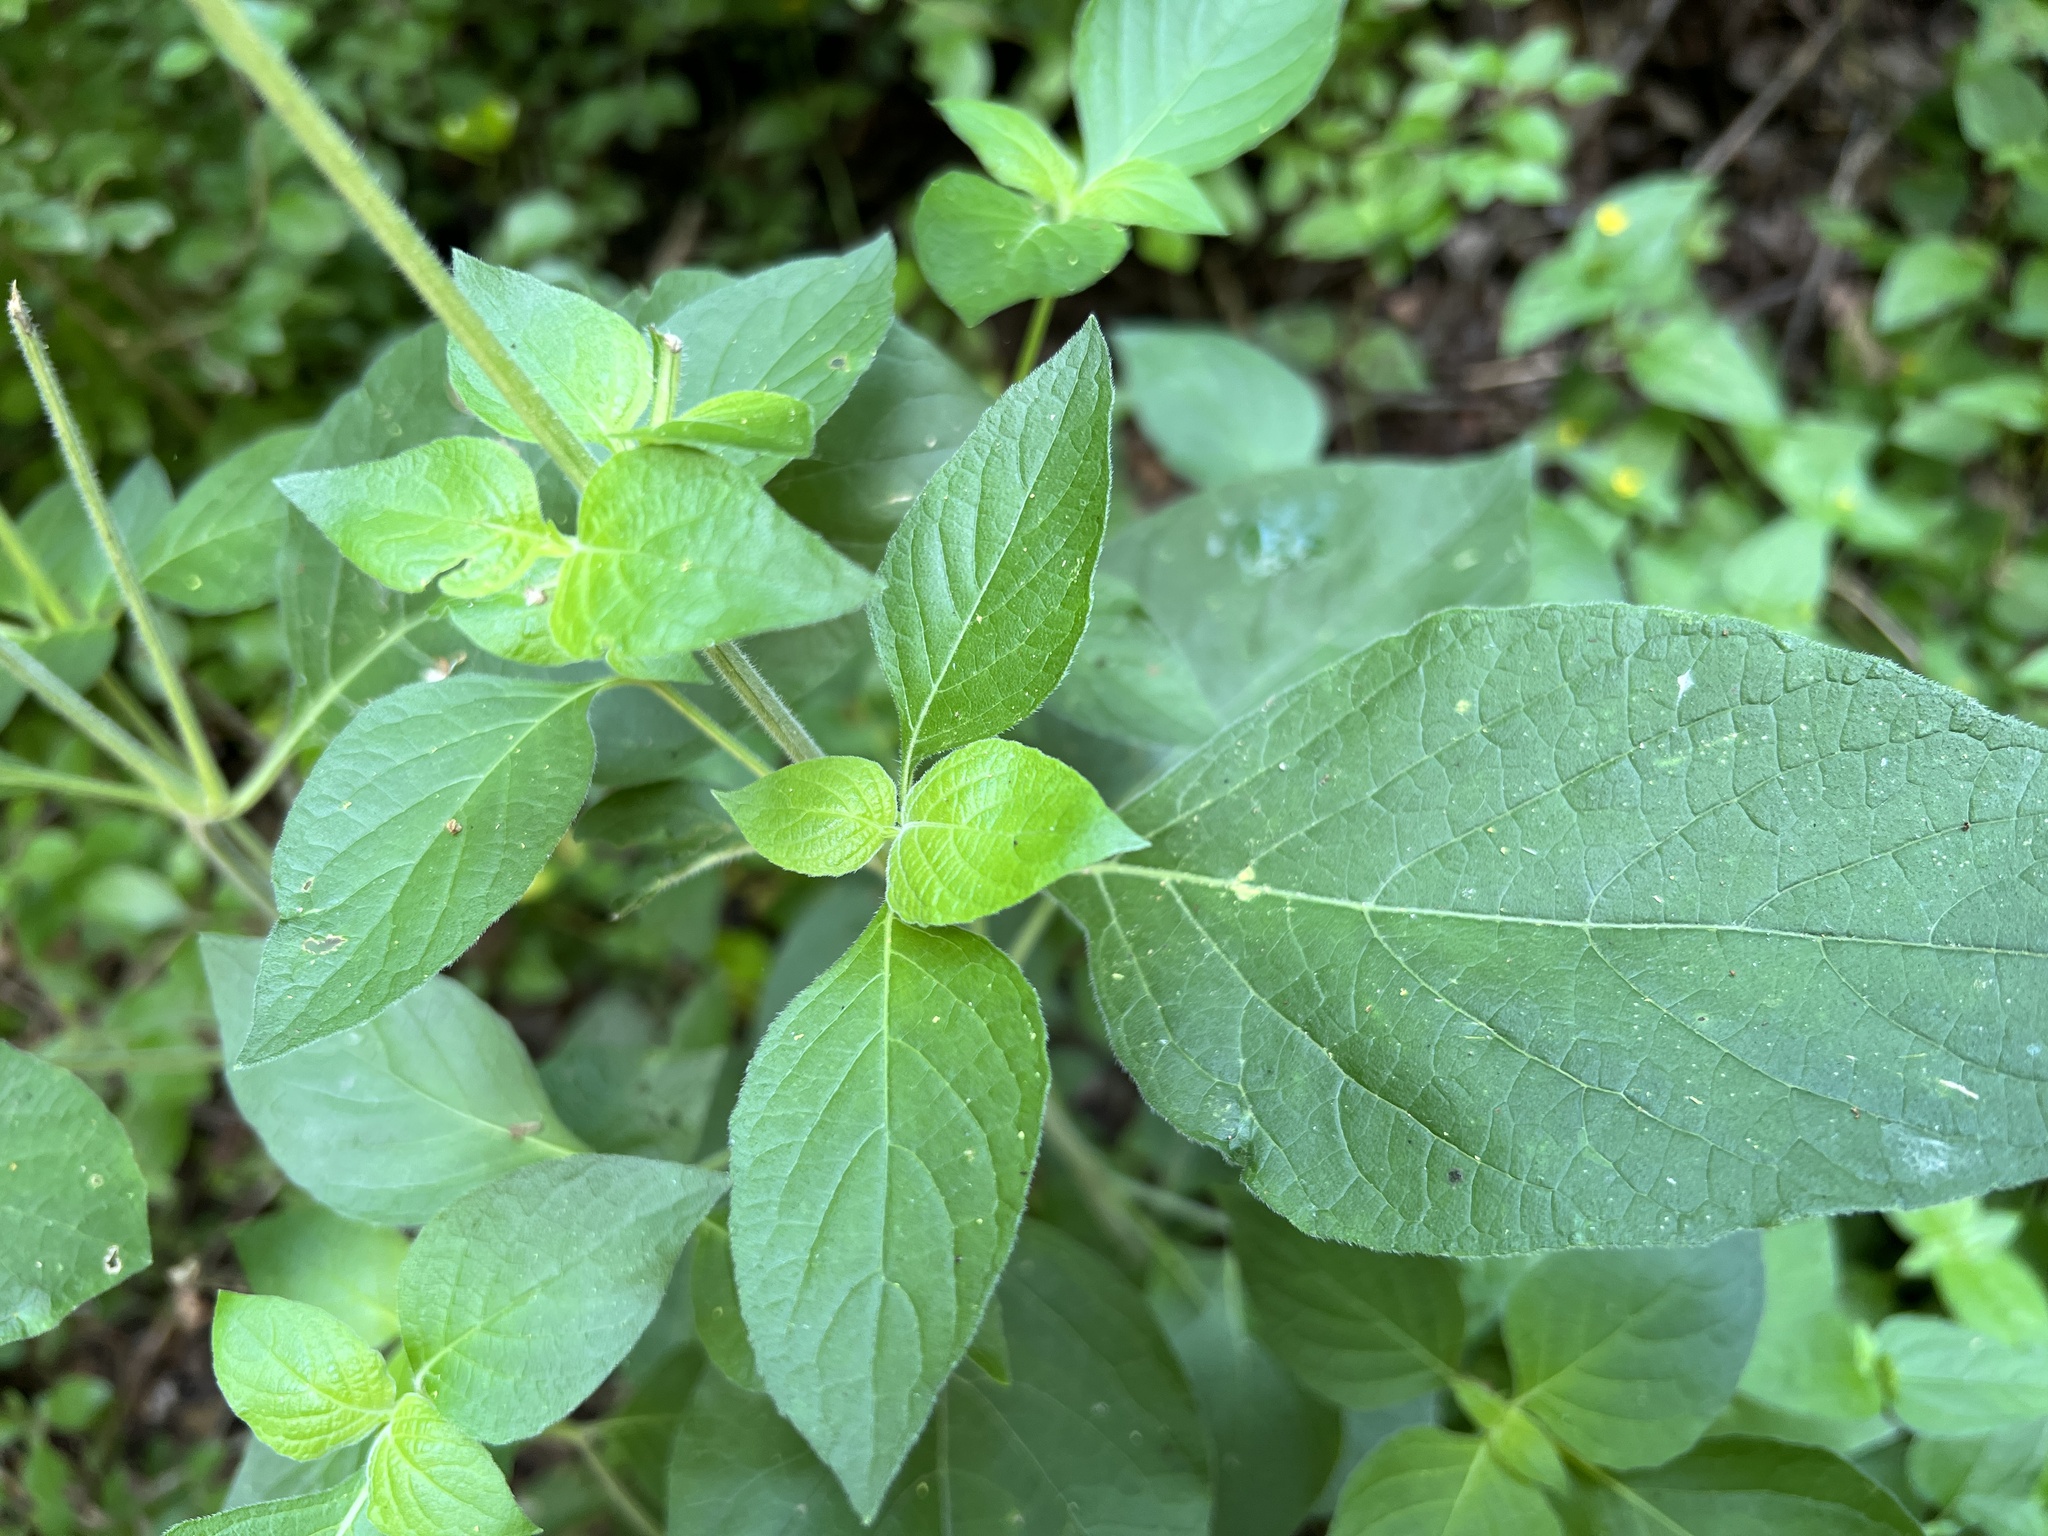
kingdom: Plantae
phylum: Tracheophyta
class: Magnoliopsida
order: Lamiales
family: Acanthaceae
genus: Ruellia
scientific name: Ruellia drummondiana
